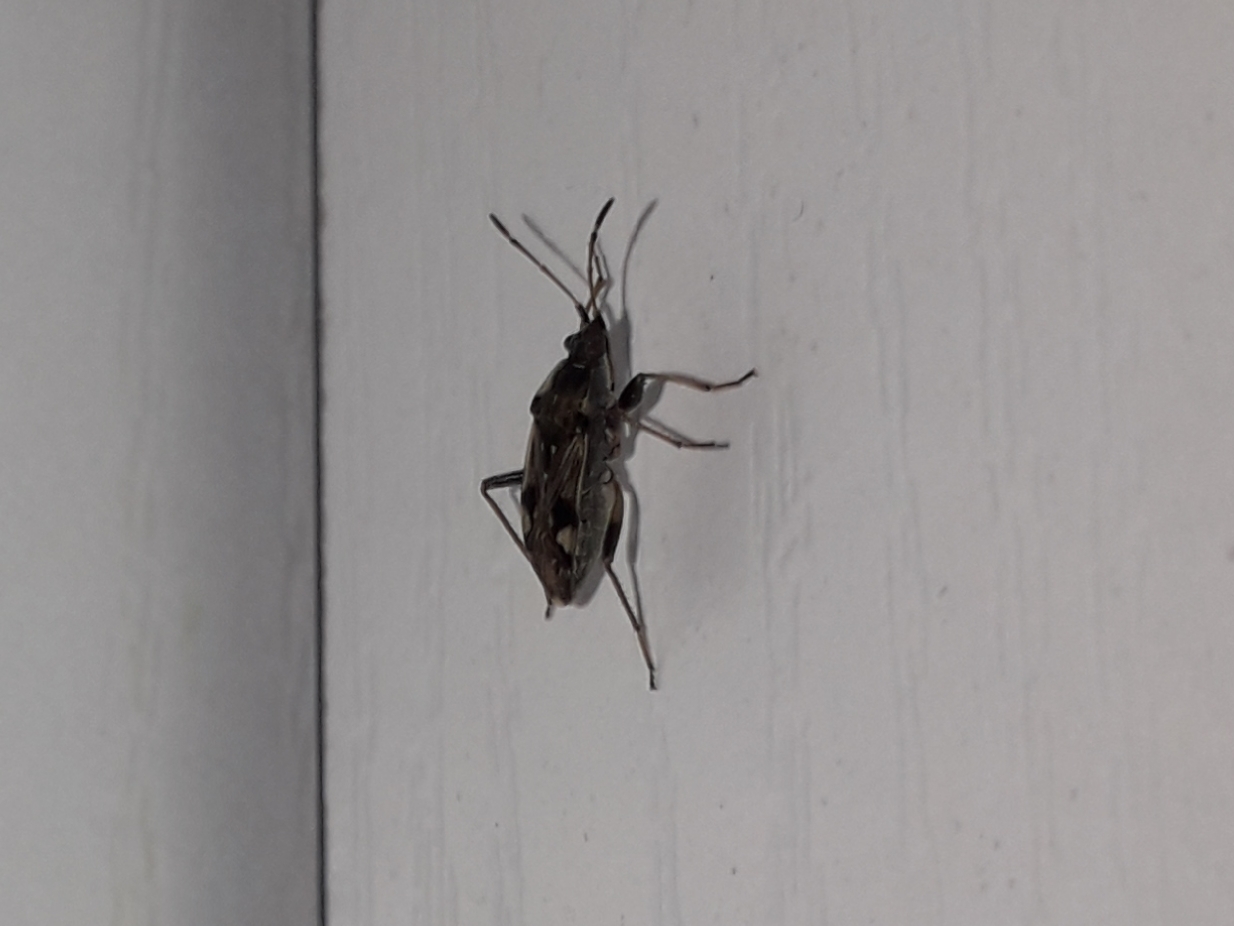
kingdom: Animalia
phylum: Arthropoda
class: Insecta
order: Hemiptera
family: Rhyparochromidae
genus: Beosus
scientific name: Beosus maritimus
